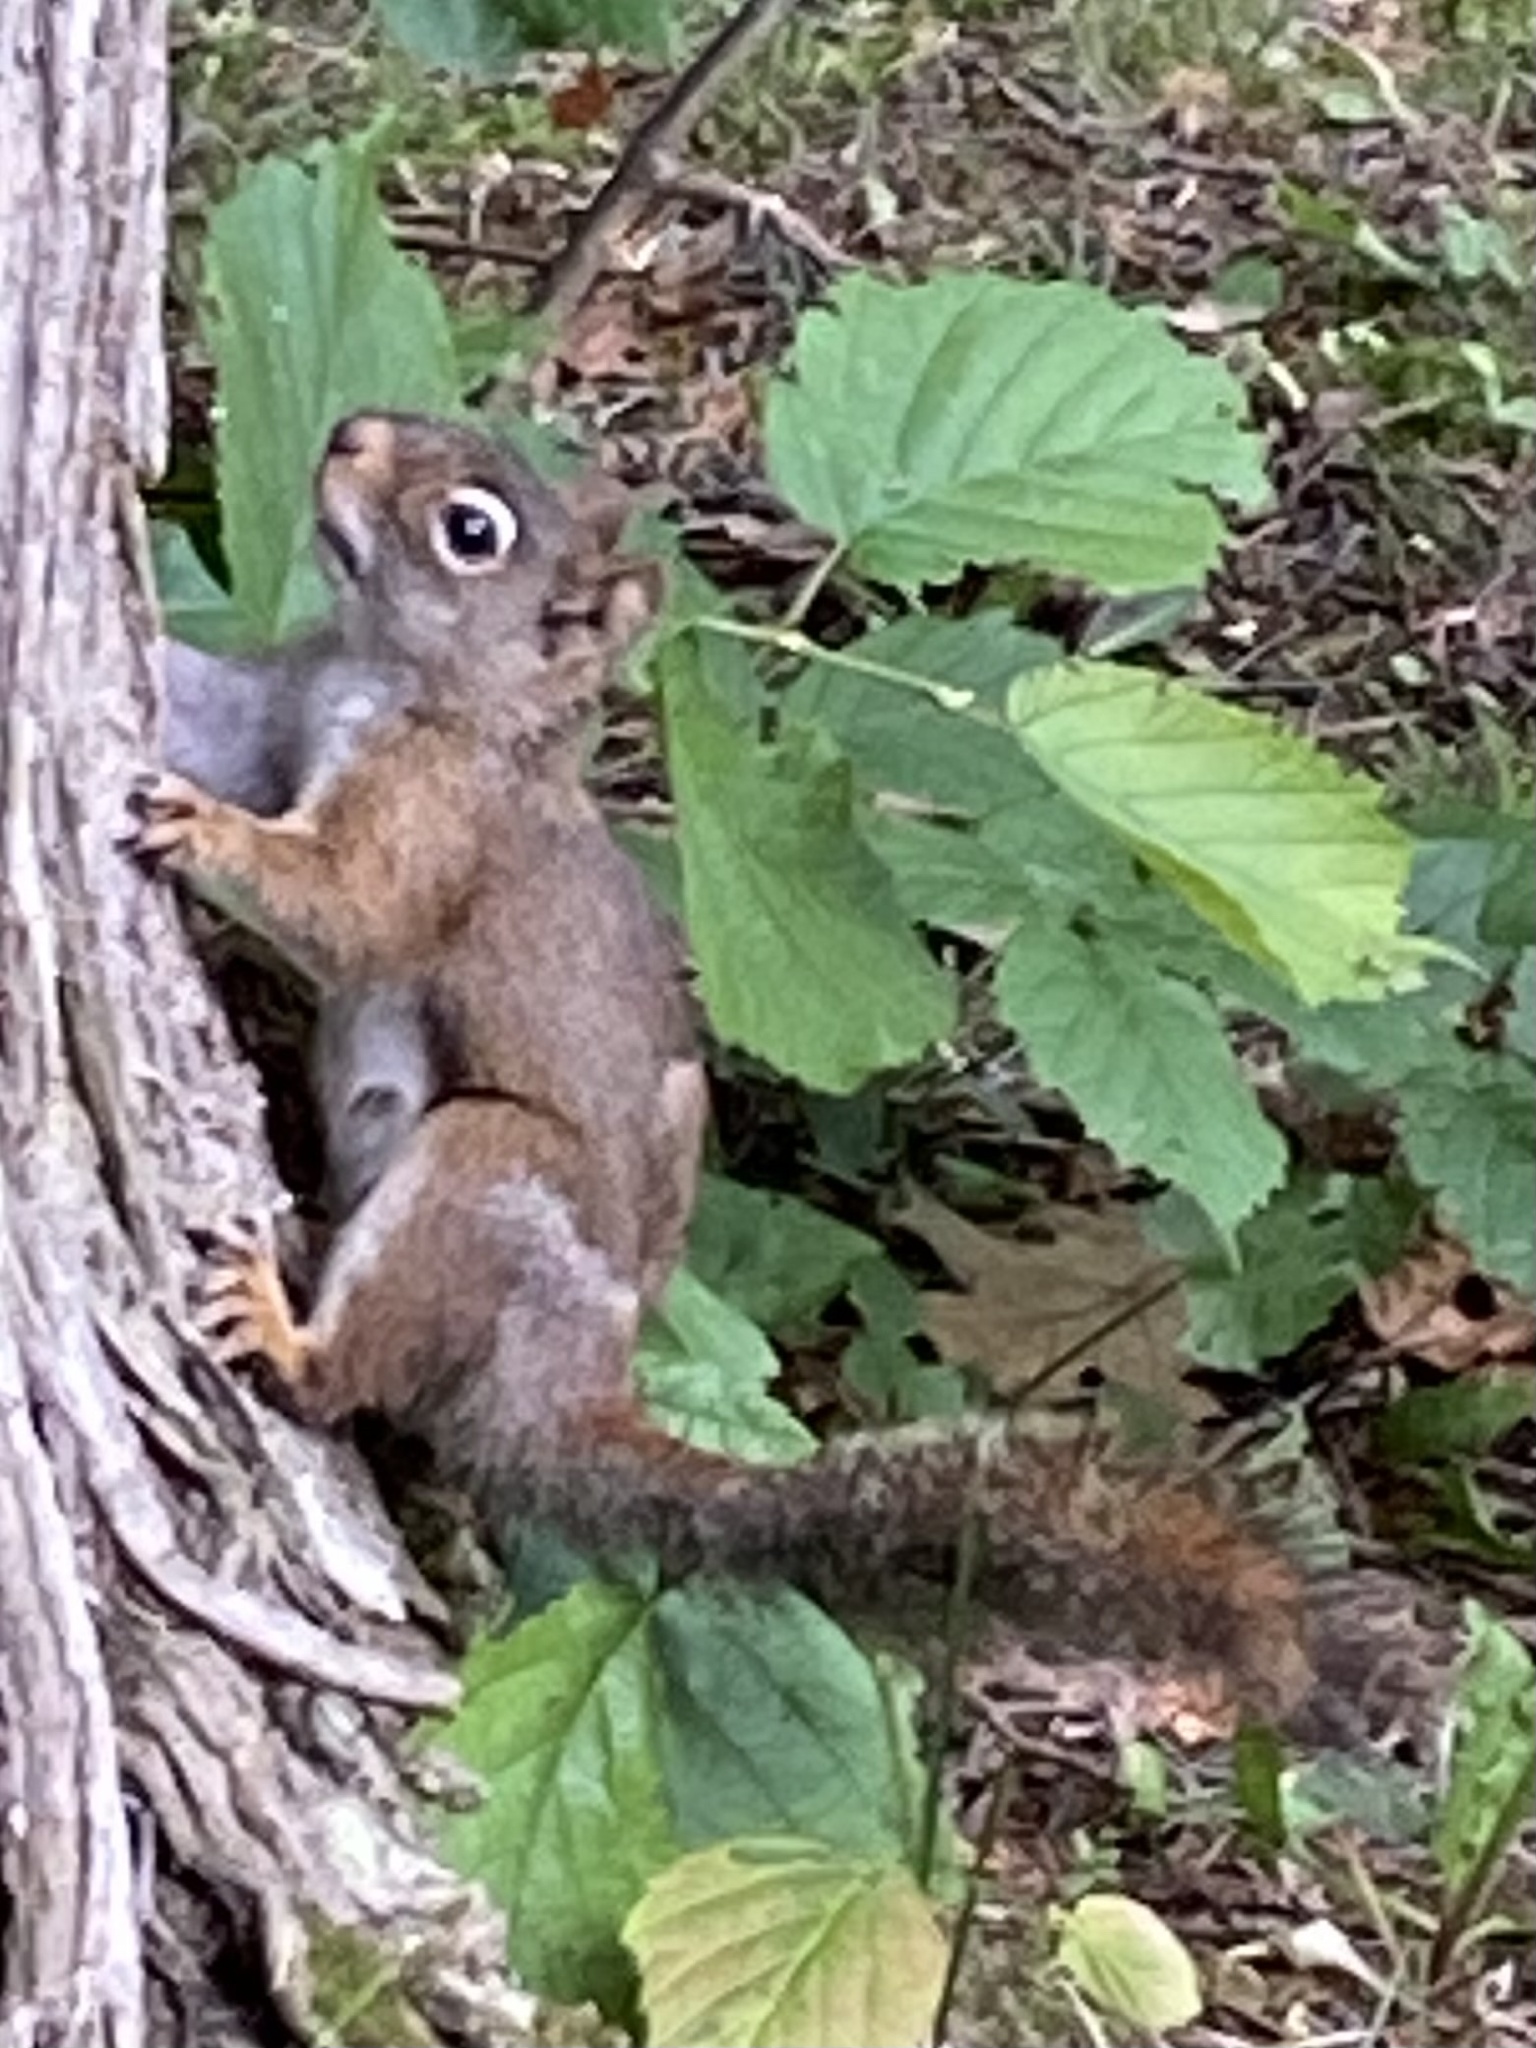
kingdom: Animalia
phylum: Chordata
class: Mammalia
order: Rodentia
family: Sciuridae
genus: Tamiasciurus
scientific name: Tamiasciurus hudsonicus
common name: Red squirrel
